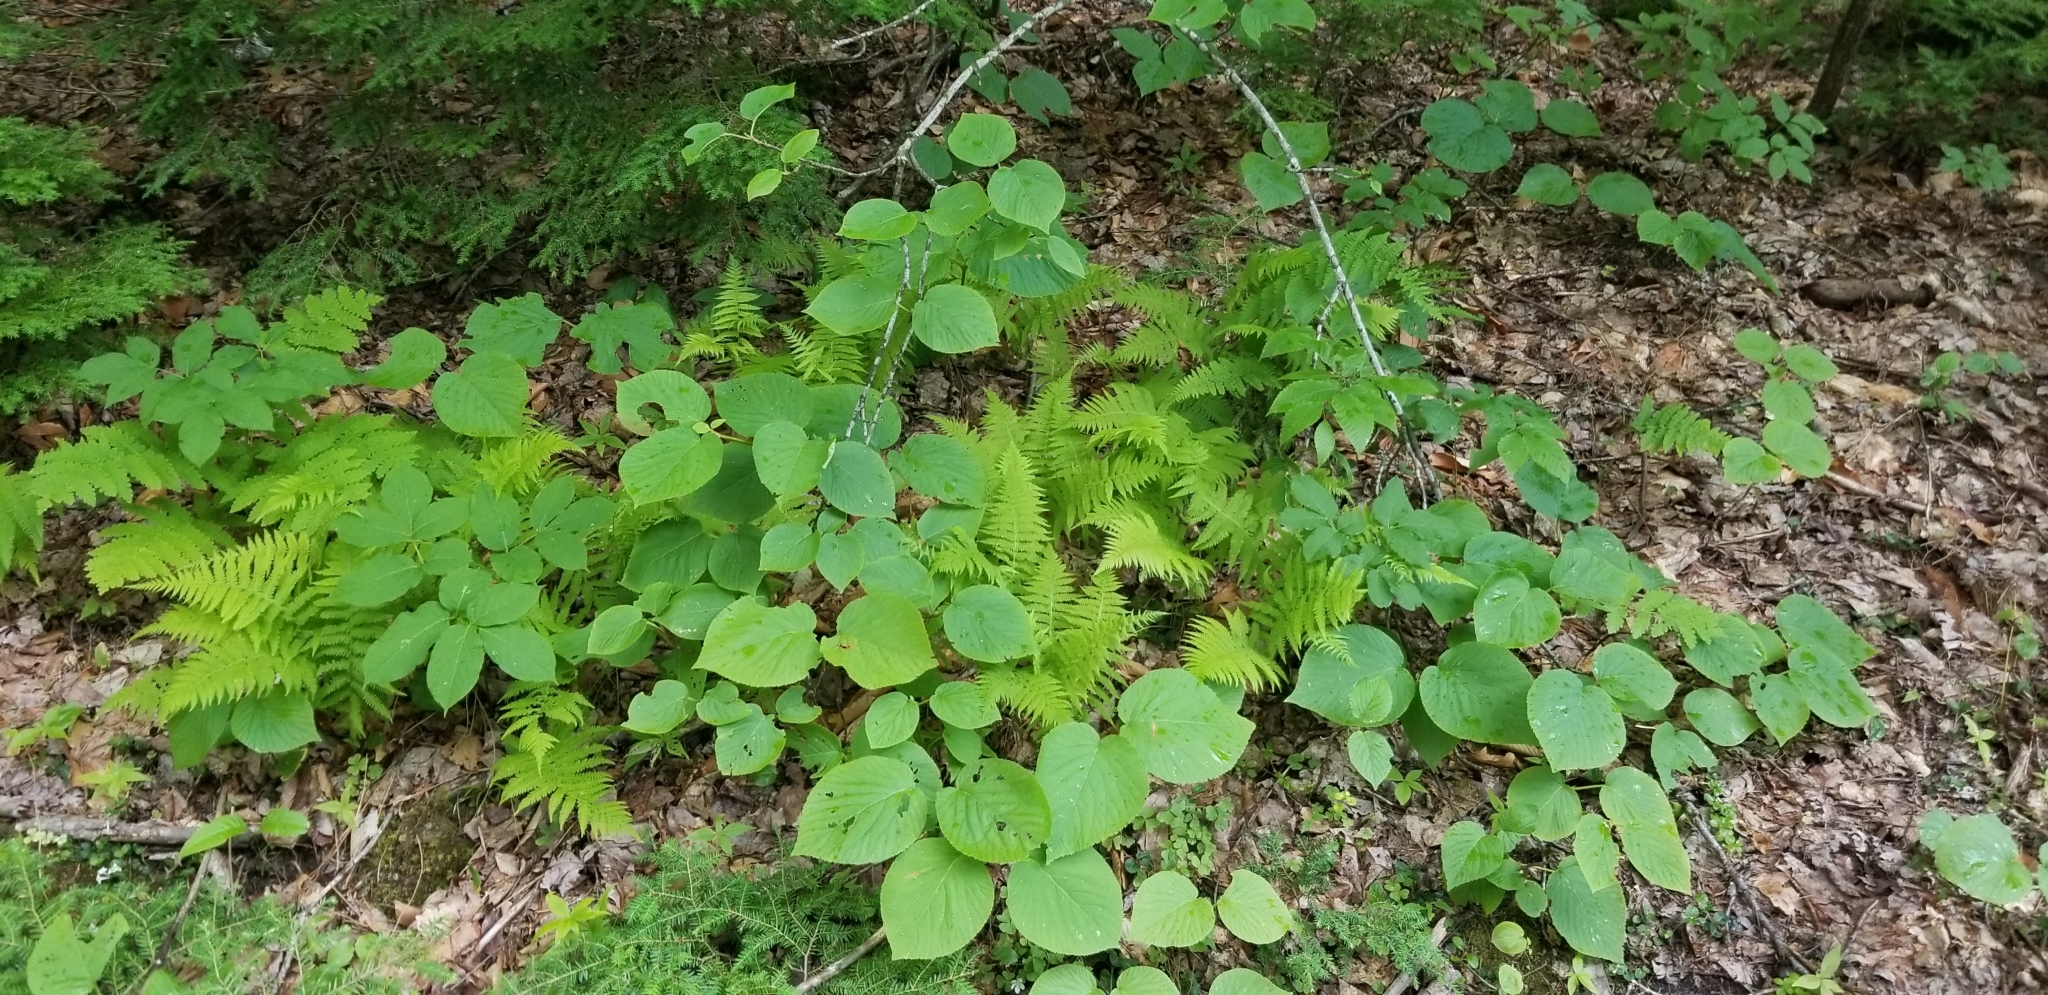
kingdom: Plantae
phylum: Tracheophyta
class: Magnoliopsida
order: Dipsacales
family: Viburnaceae
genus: Viburnum
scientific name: Viburnum lantanoides
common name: Hobblebush
